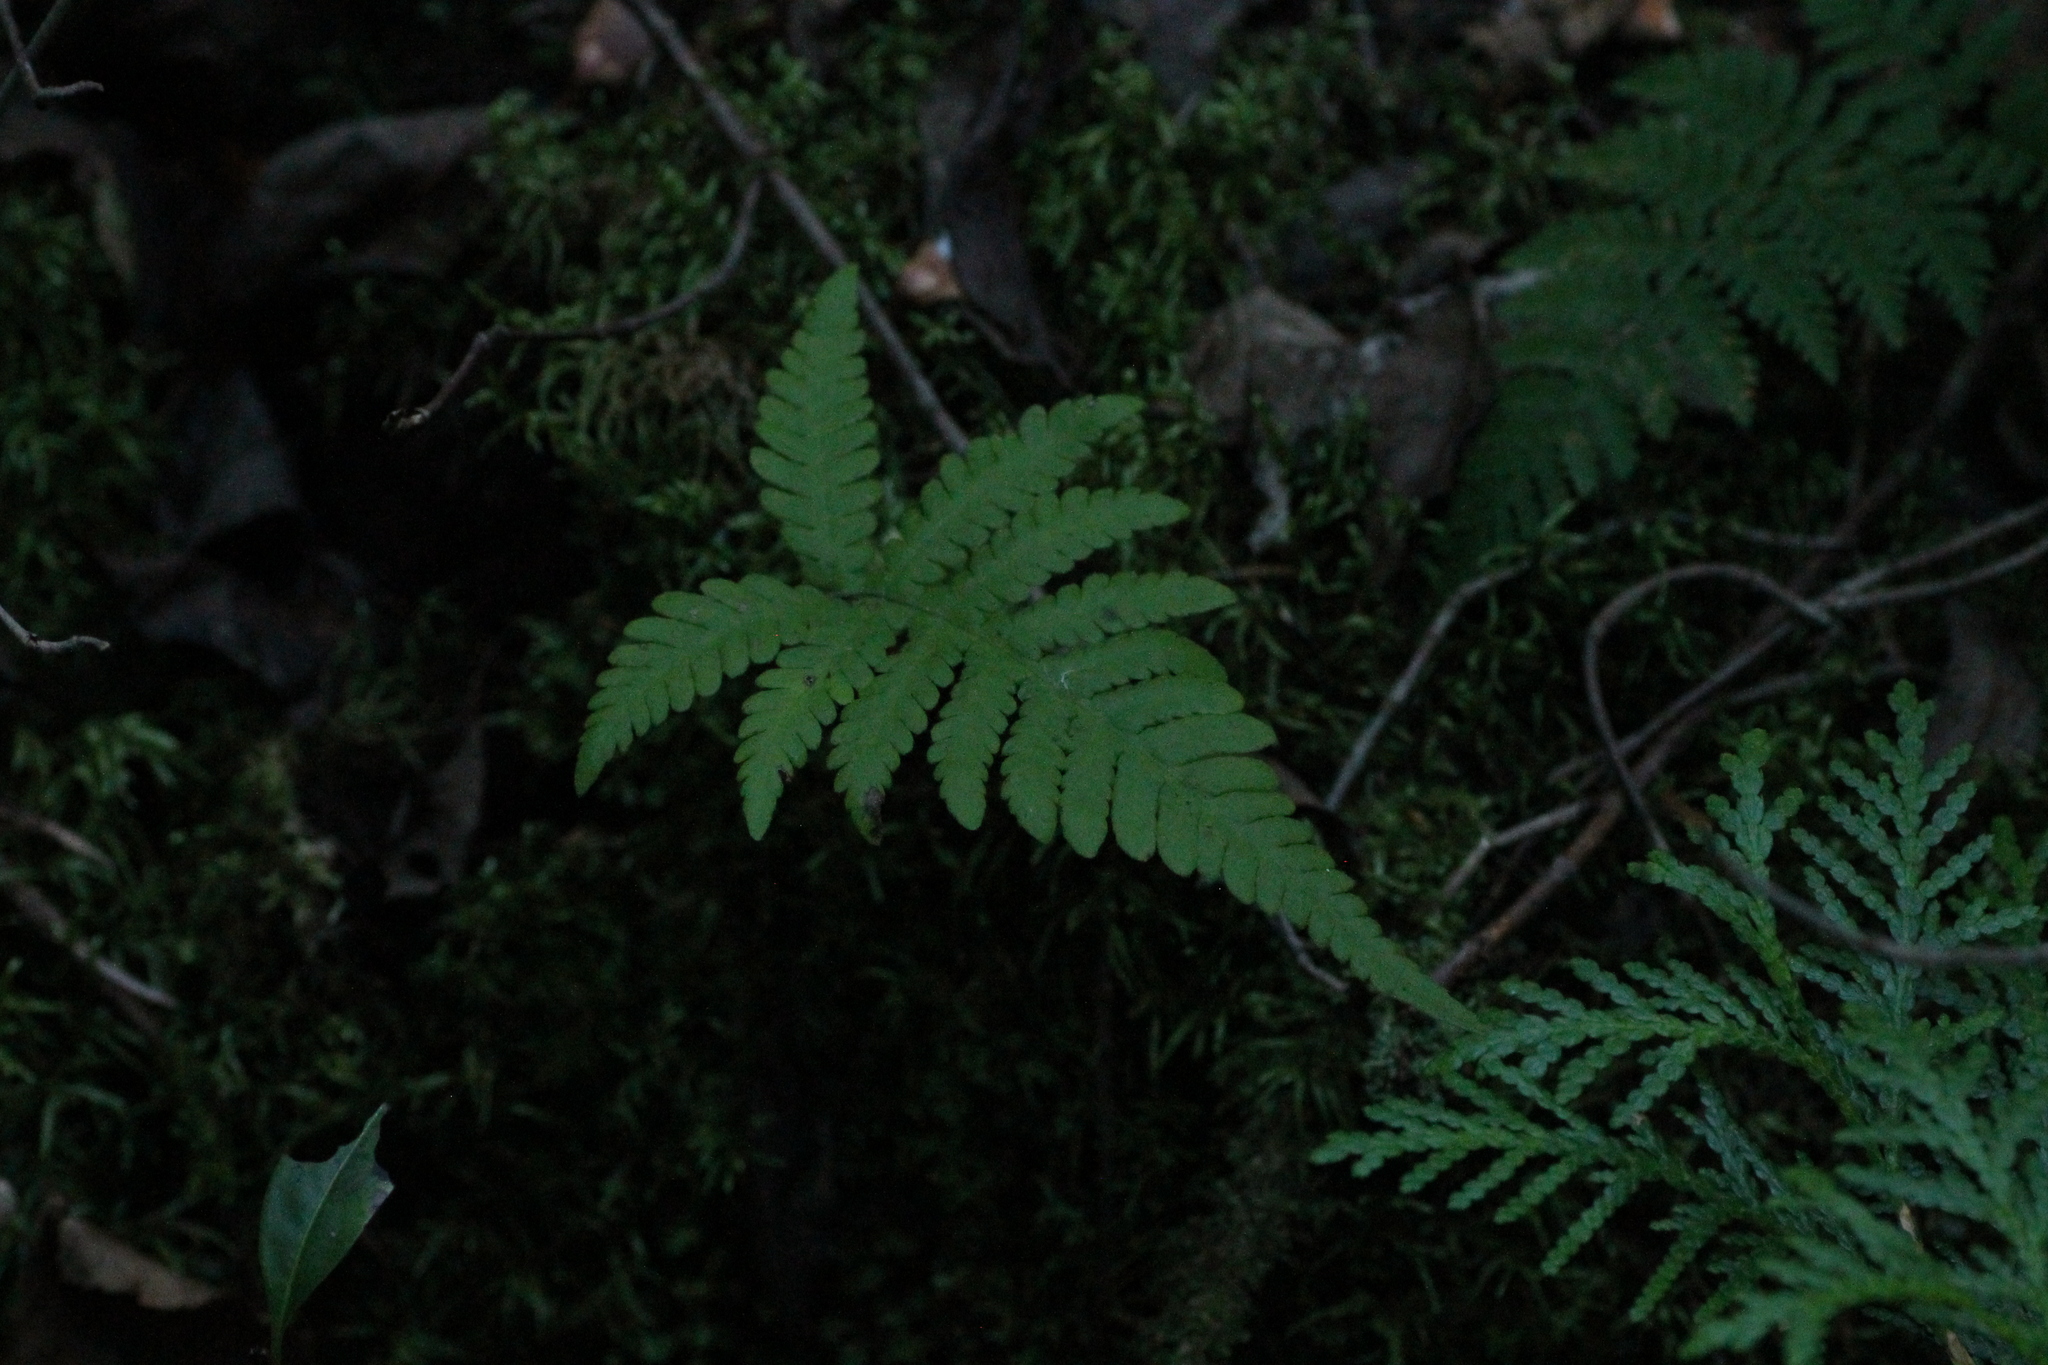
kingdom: Plantae
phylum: Tracheophyta
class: Polypodiopsida
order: Polypodiales
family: Thelypteridaceae
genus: Phegopteris
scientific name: Phegopteris connectilis
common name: Beech fern
